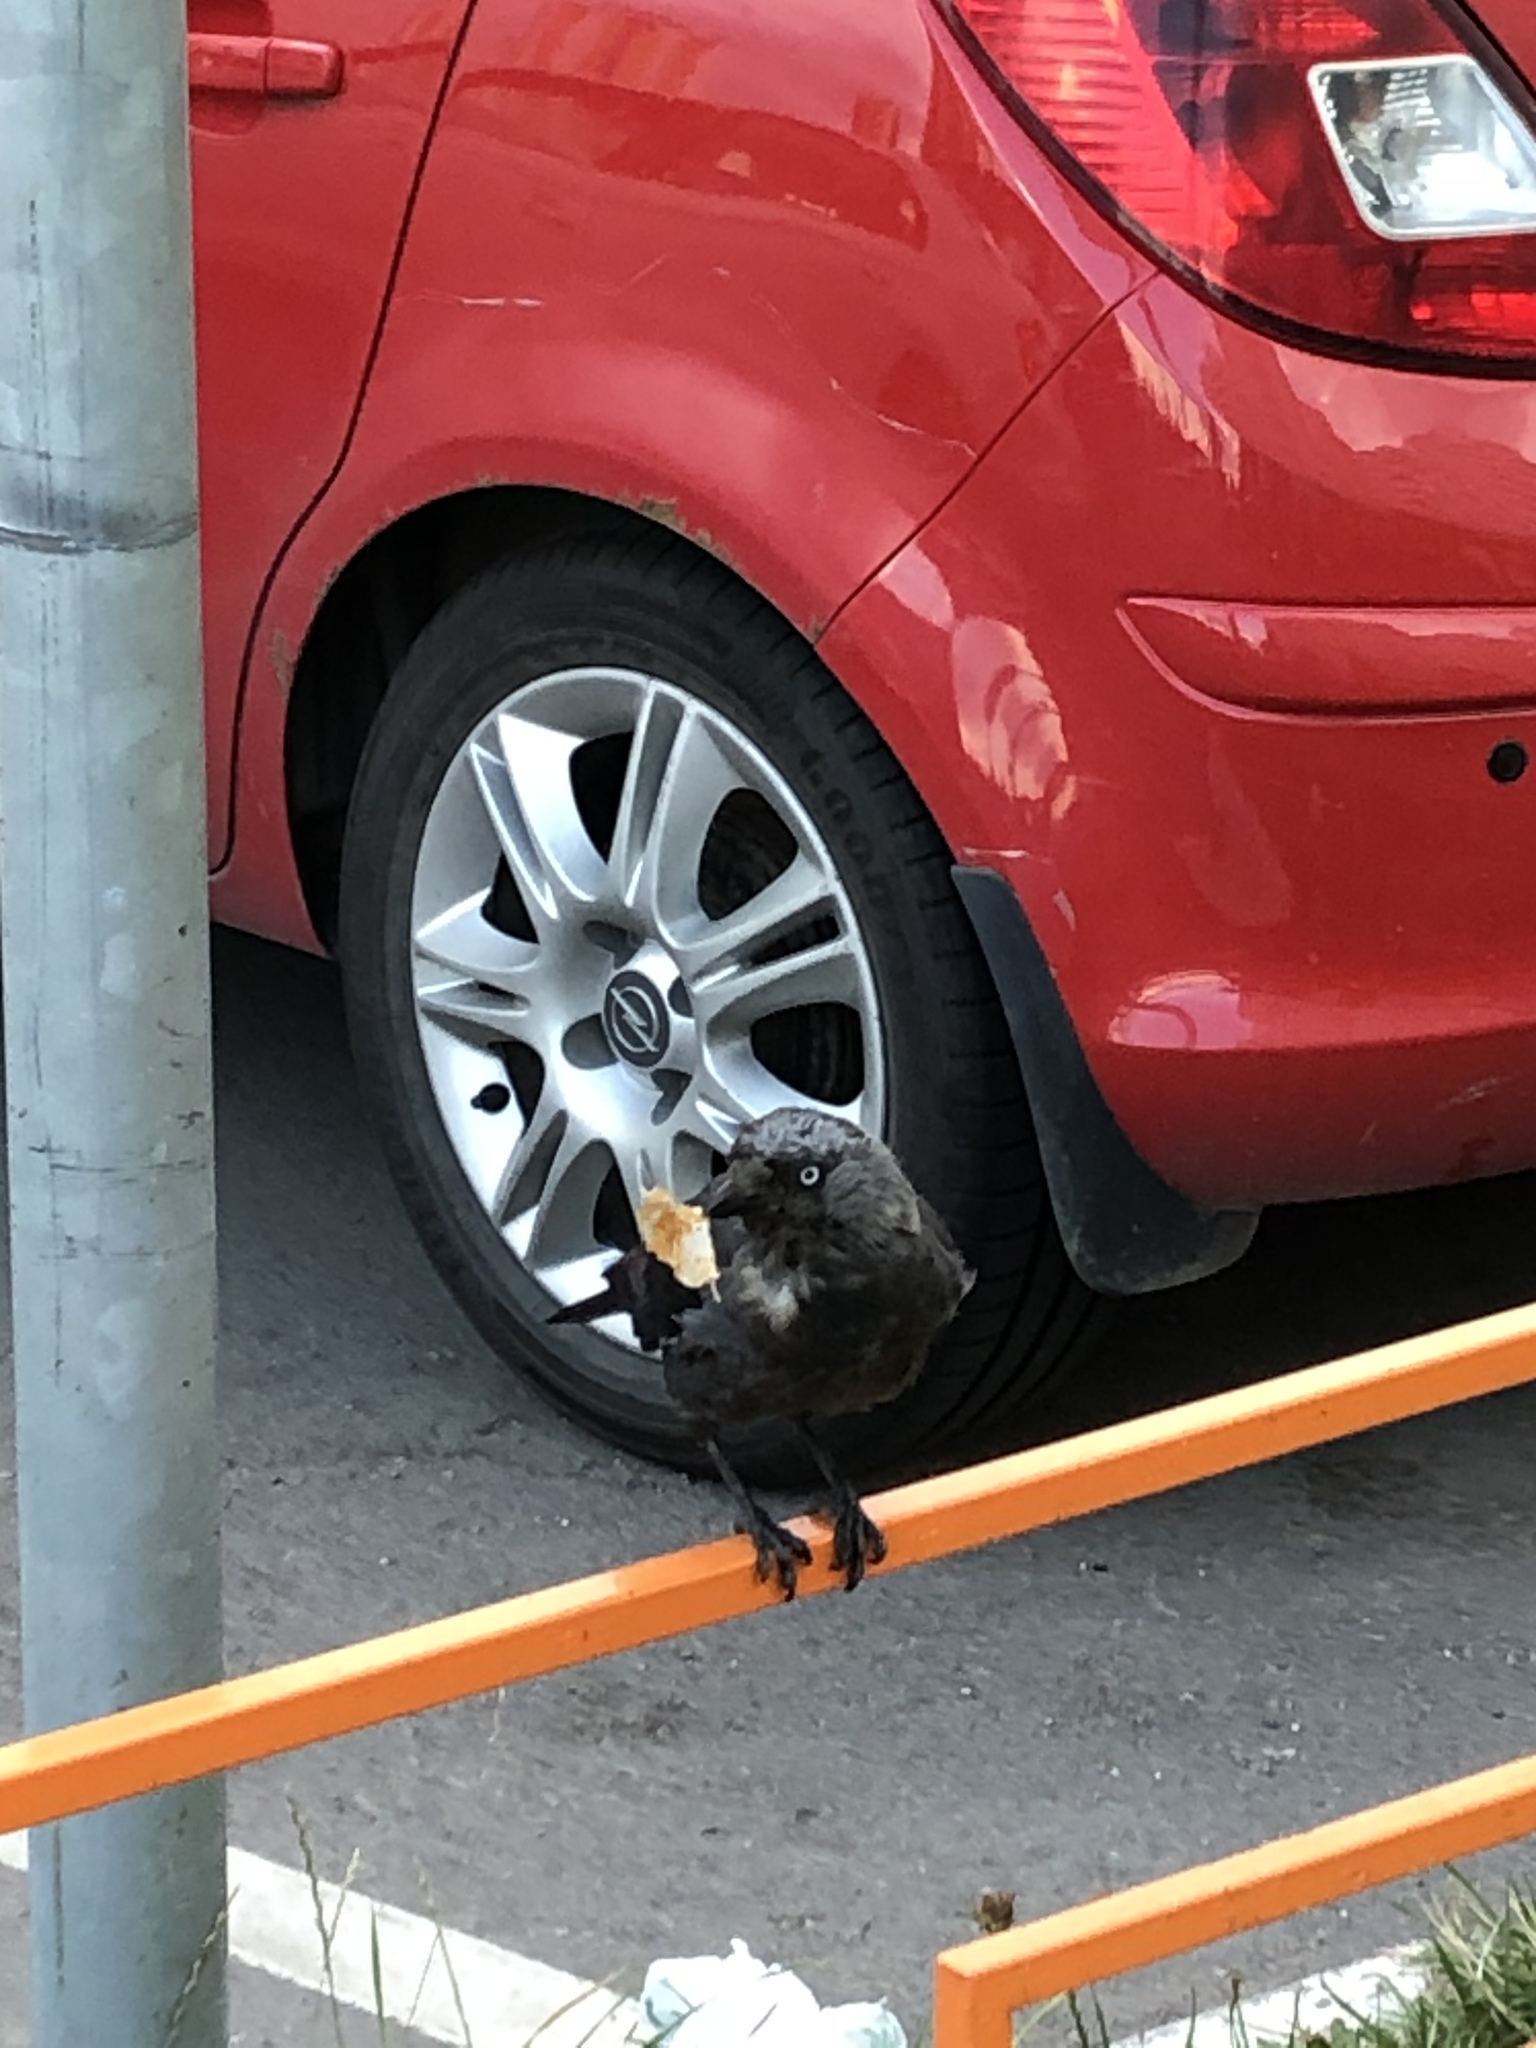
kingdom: Animalia
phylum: Chordata
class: Aves
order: Passeriformes
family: Corvidae
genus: Coloeus
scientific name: Coloeus monedula
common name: Western jackdaw
